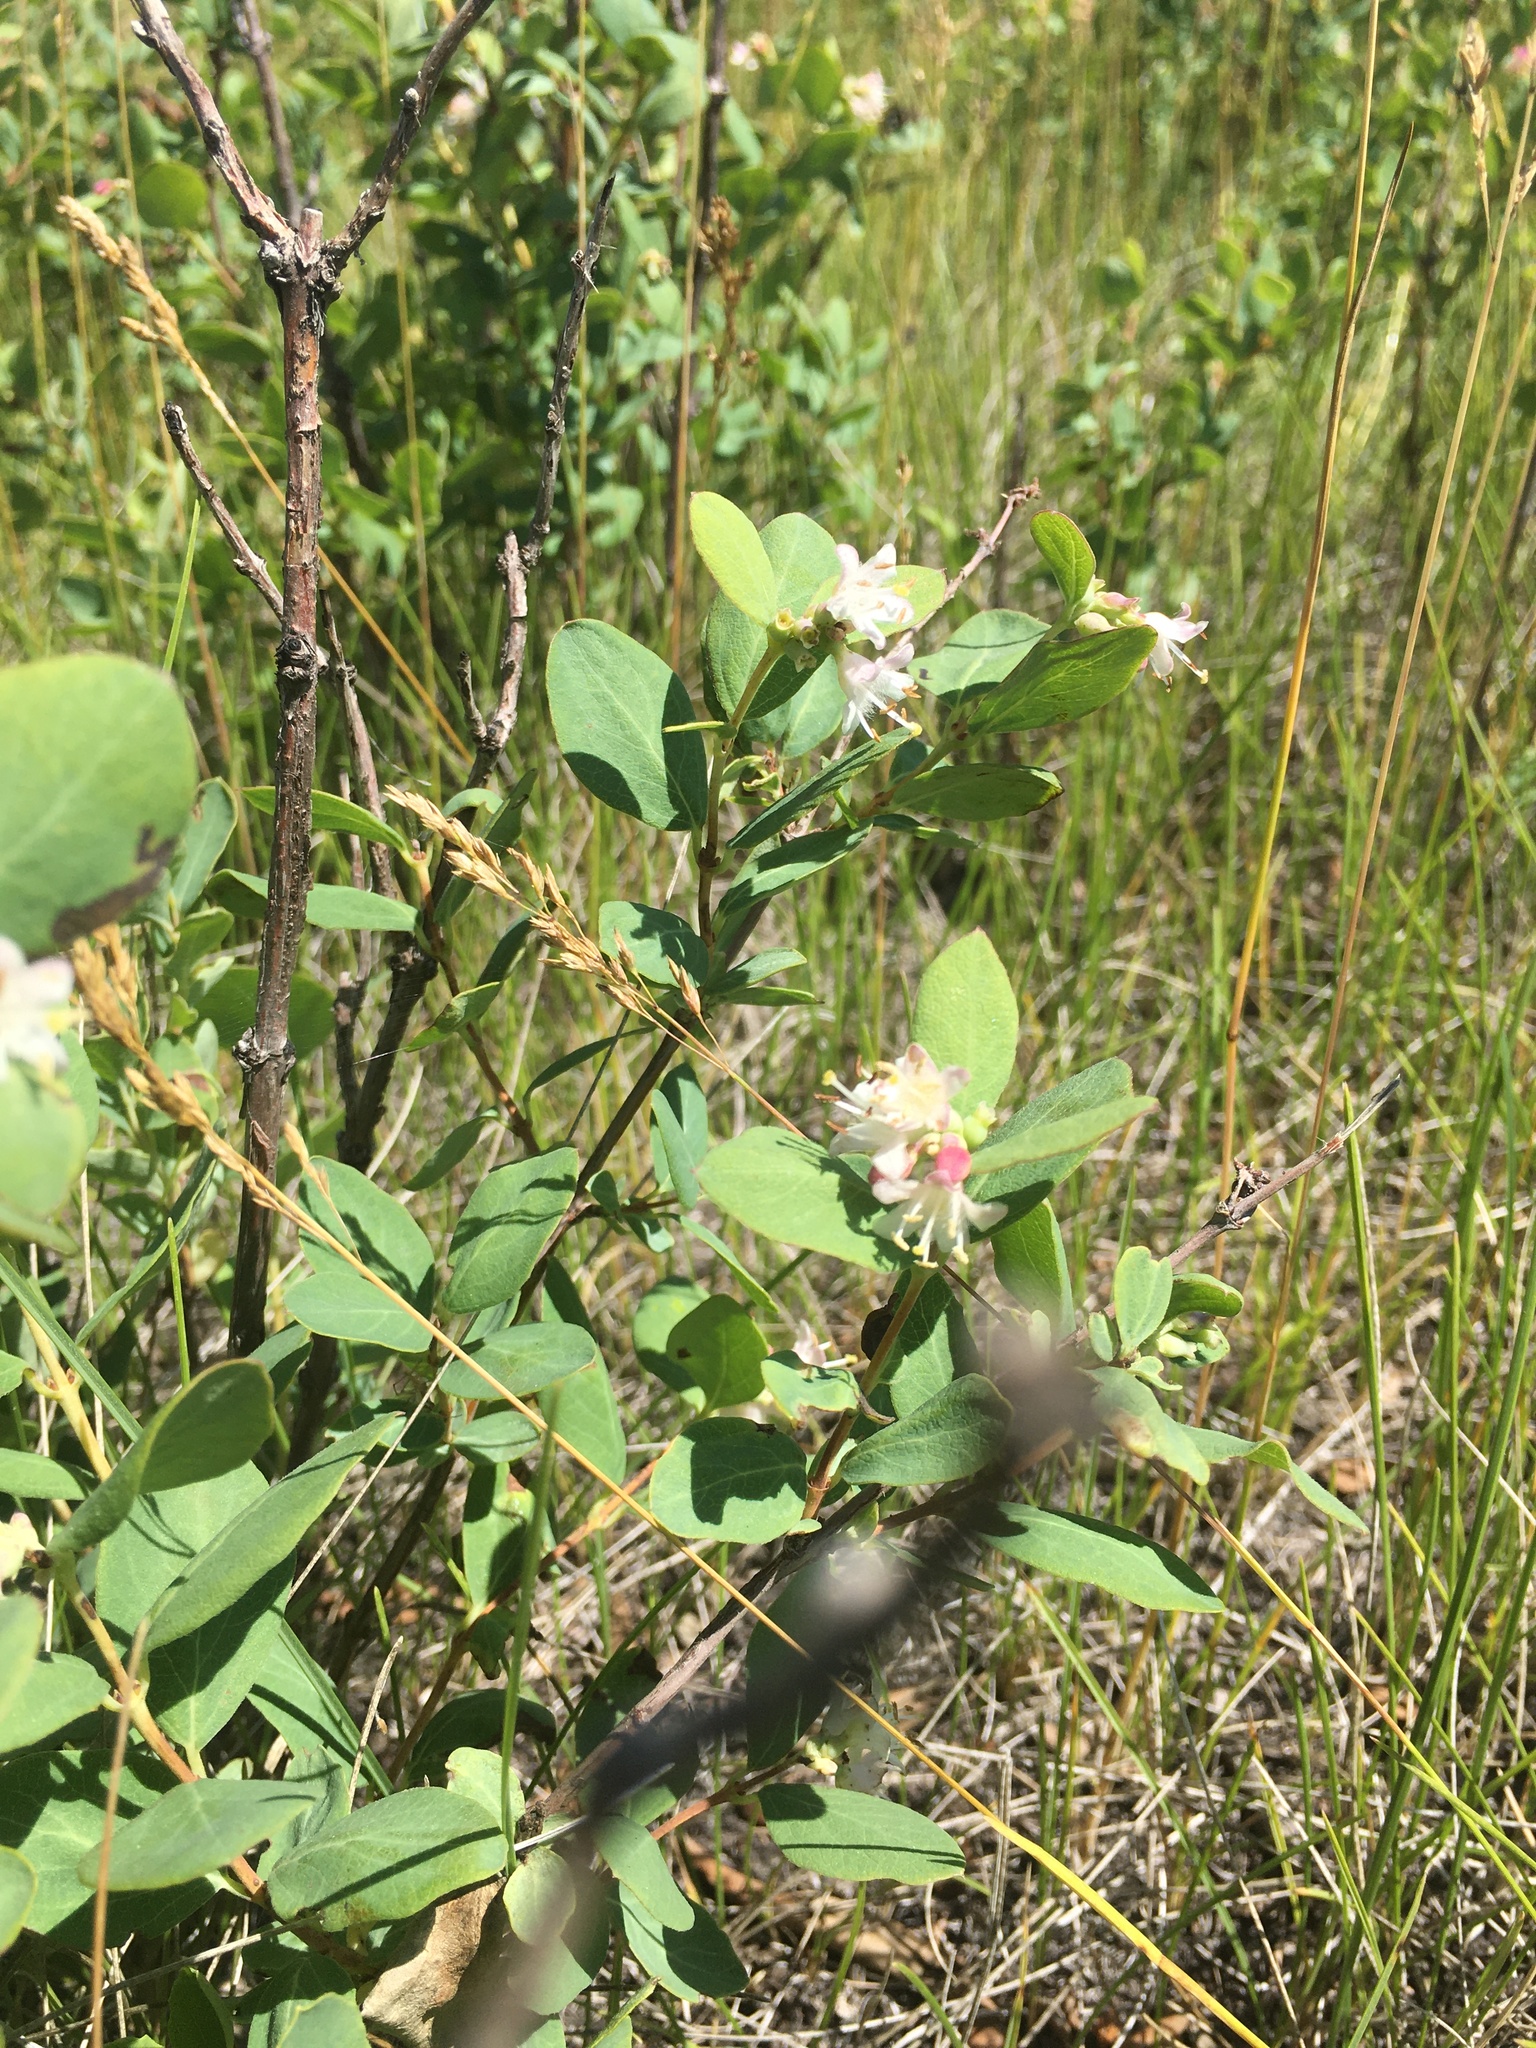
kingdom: Plantae
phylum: Tracheophyta
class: Magnoliopsida
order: Dipsacales
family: Caprifoliaceae
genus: Symphoricarpos
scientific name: Symphoricarpos occidentalis
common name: Wolfberry
